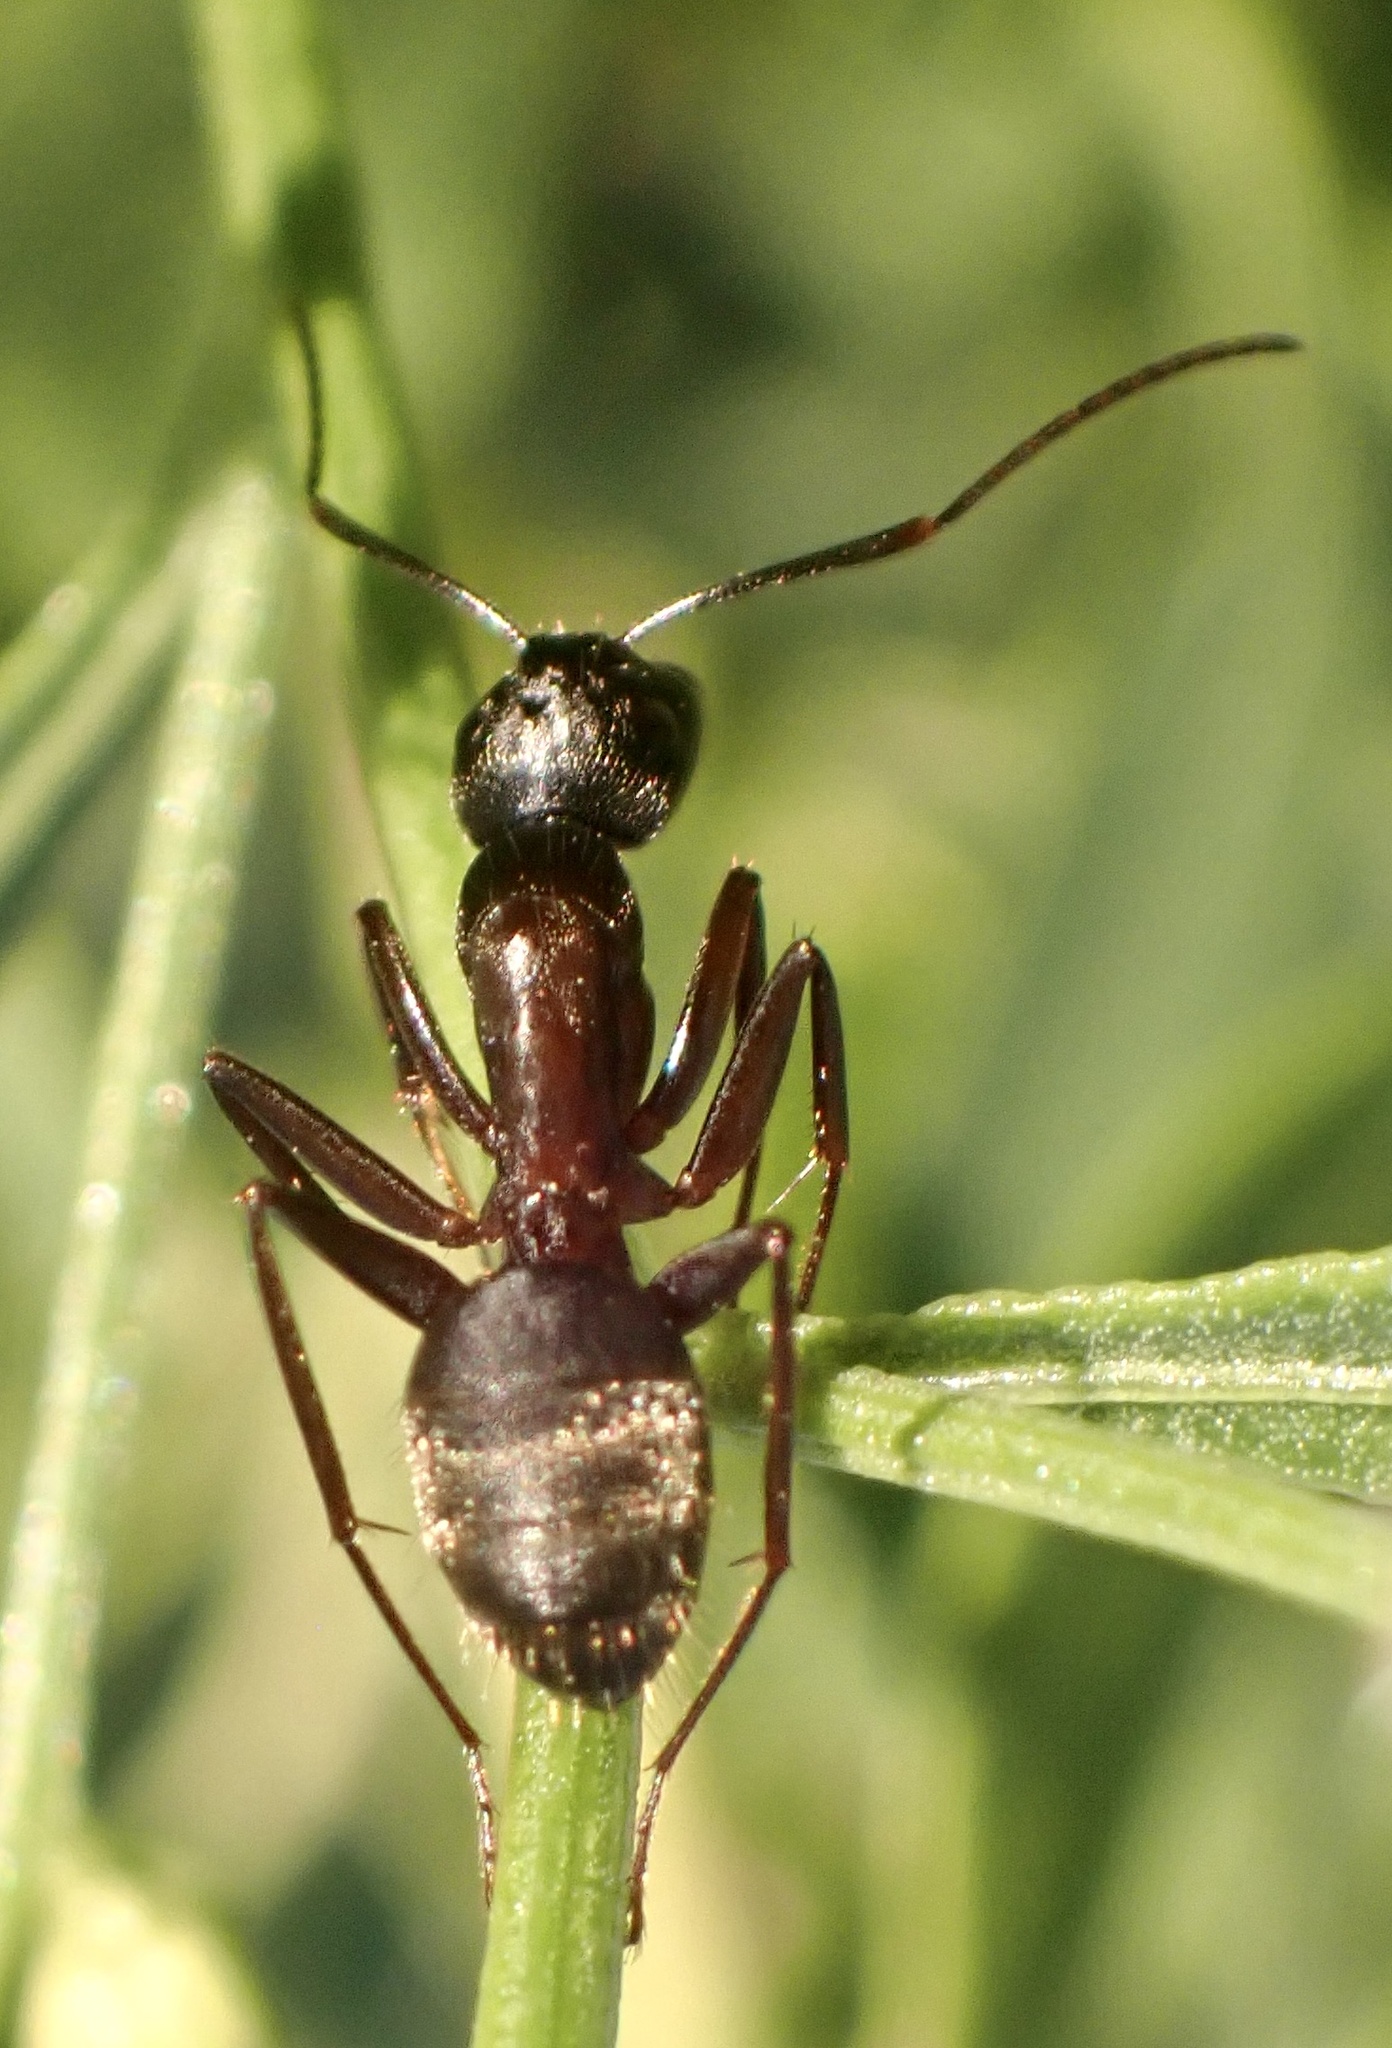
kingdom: Animalia
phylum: Arthropoda
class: Insecta
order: Hymenoptera
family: Formicidae
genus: Camponotus
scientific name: Camponotus chromaiodes
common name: Red carpenter ant
